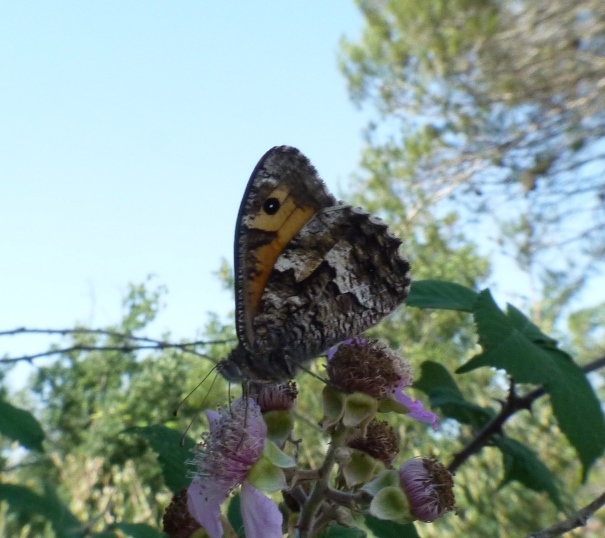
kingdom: Animalia
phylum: Arthropoda
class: Insecta
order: Lepidoptera
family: Nymphalidae
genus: Hipparchia
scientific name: Hipparchia semele
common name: Grayling
